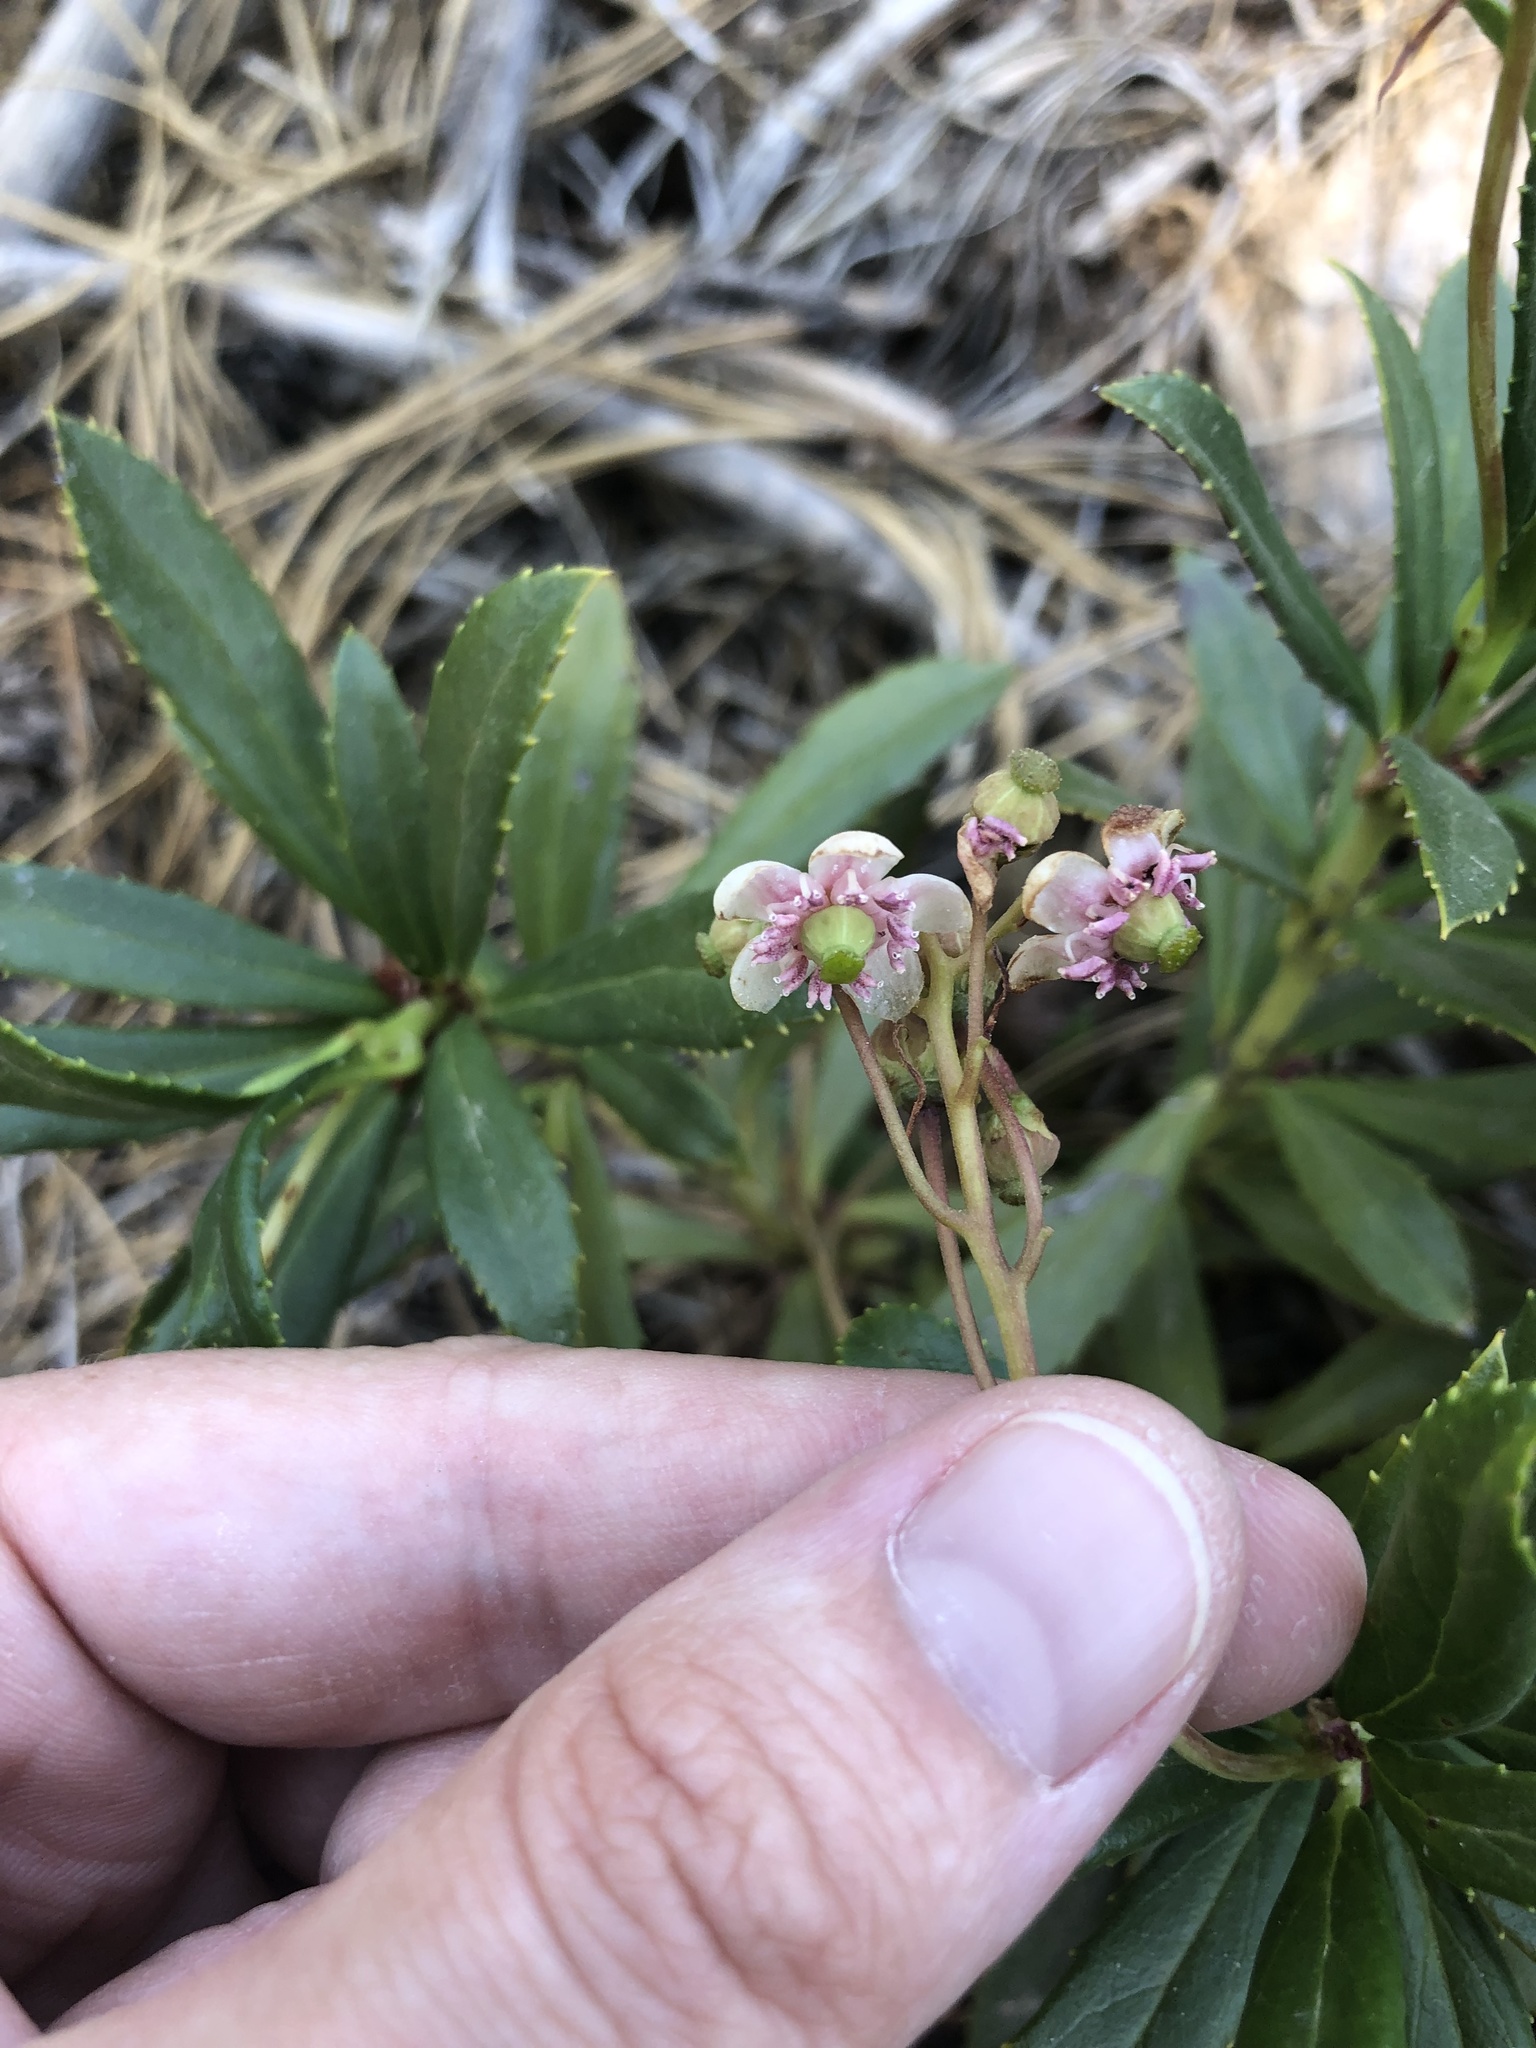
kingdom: Plantae
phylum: Tracheophyta
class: Magnoliopsida
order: Ericales
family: Ericaceae
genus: Chimaphila
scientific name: Chimaphila umbellata
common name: Pipsissewa
